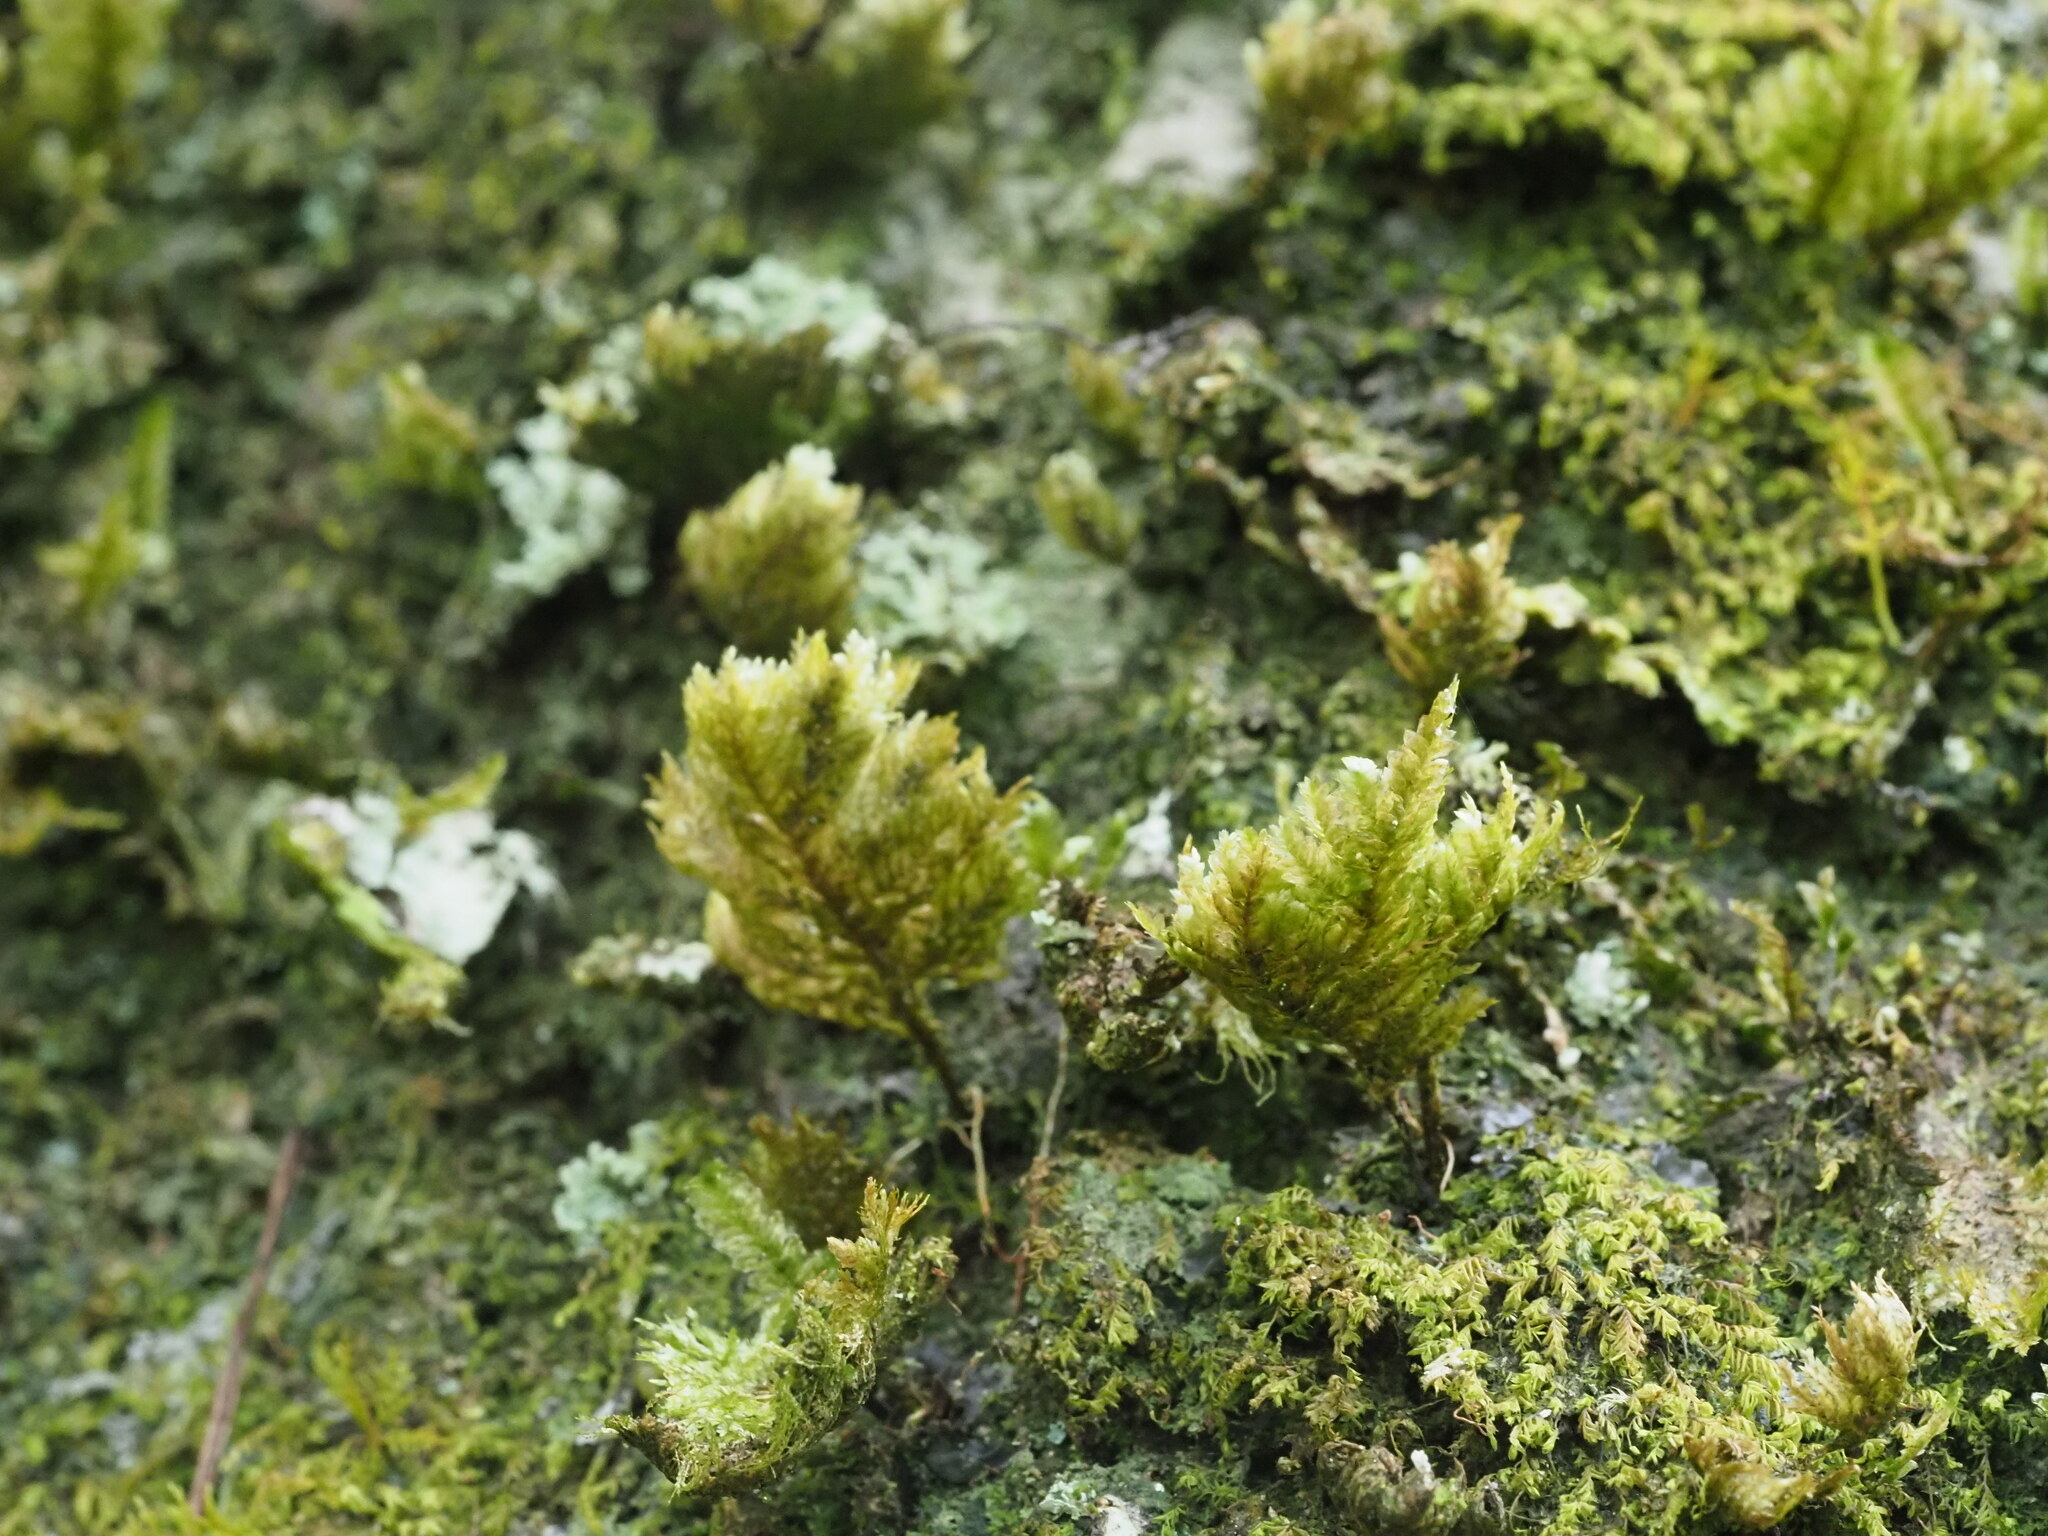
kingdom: Plantae
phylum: Bryophyta
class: Bryopsida
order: Hypnales
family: Neckeraceae
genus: Homaliodendron
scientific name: Homaliodendron flabellatum
